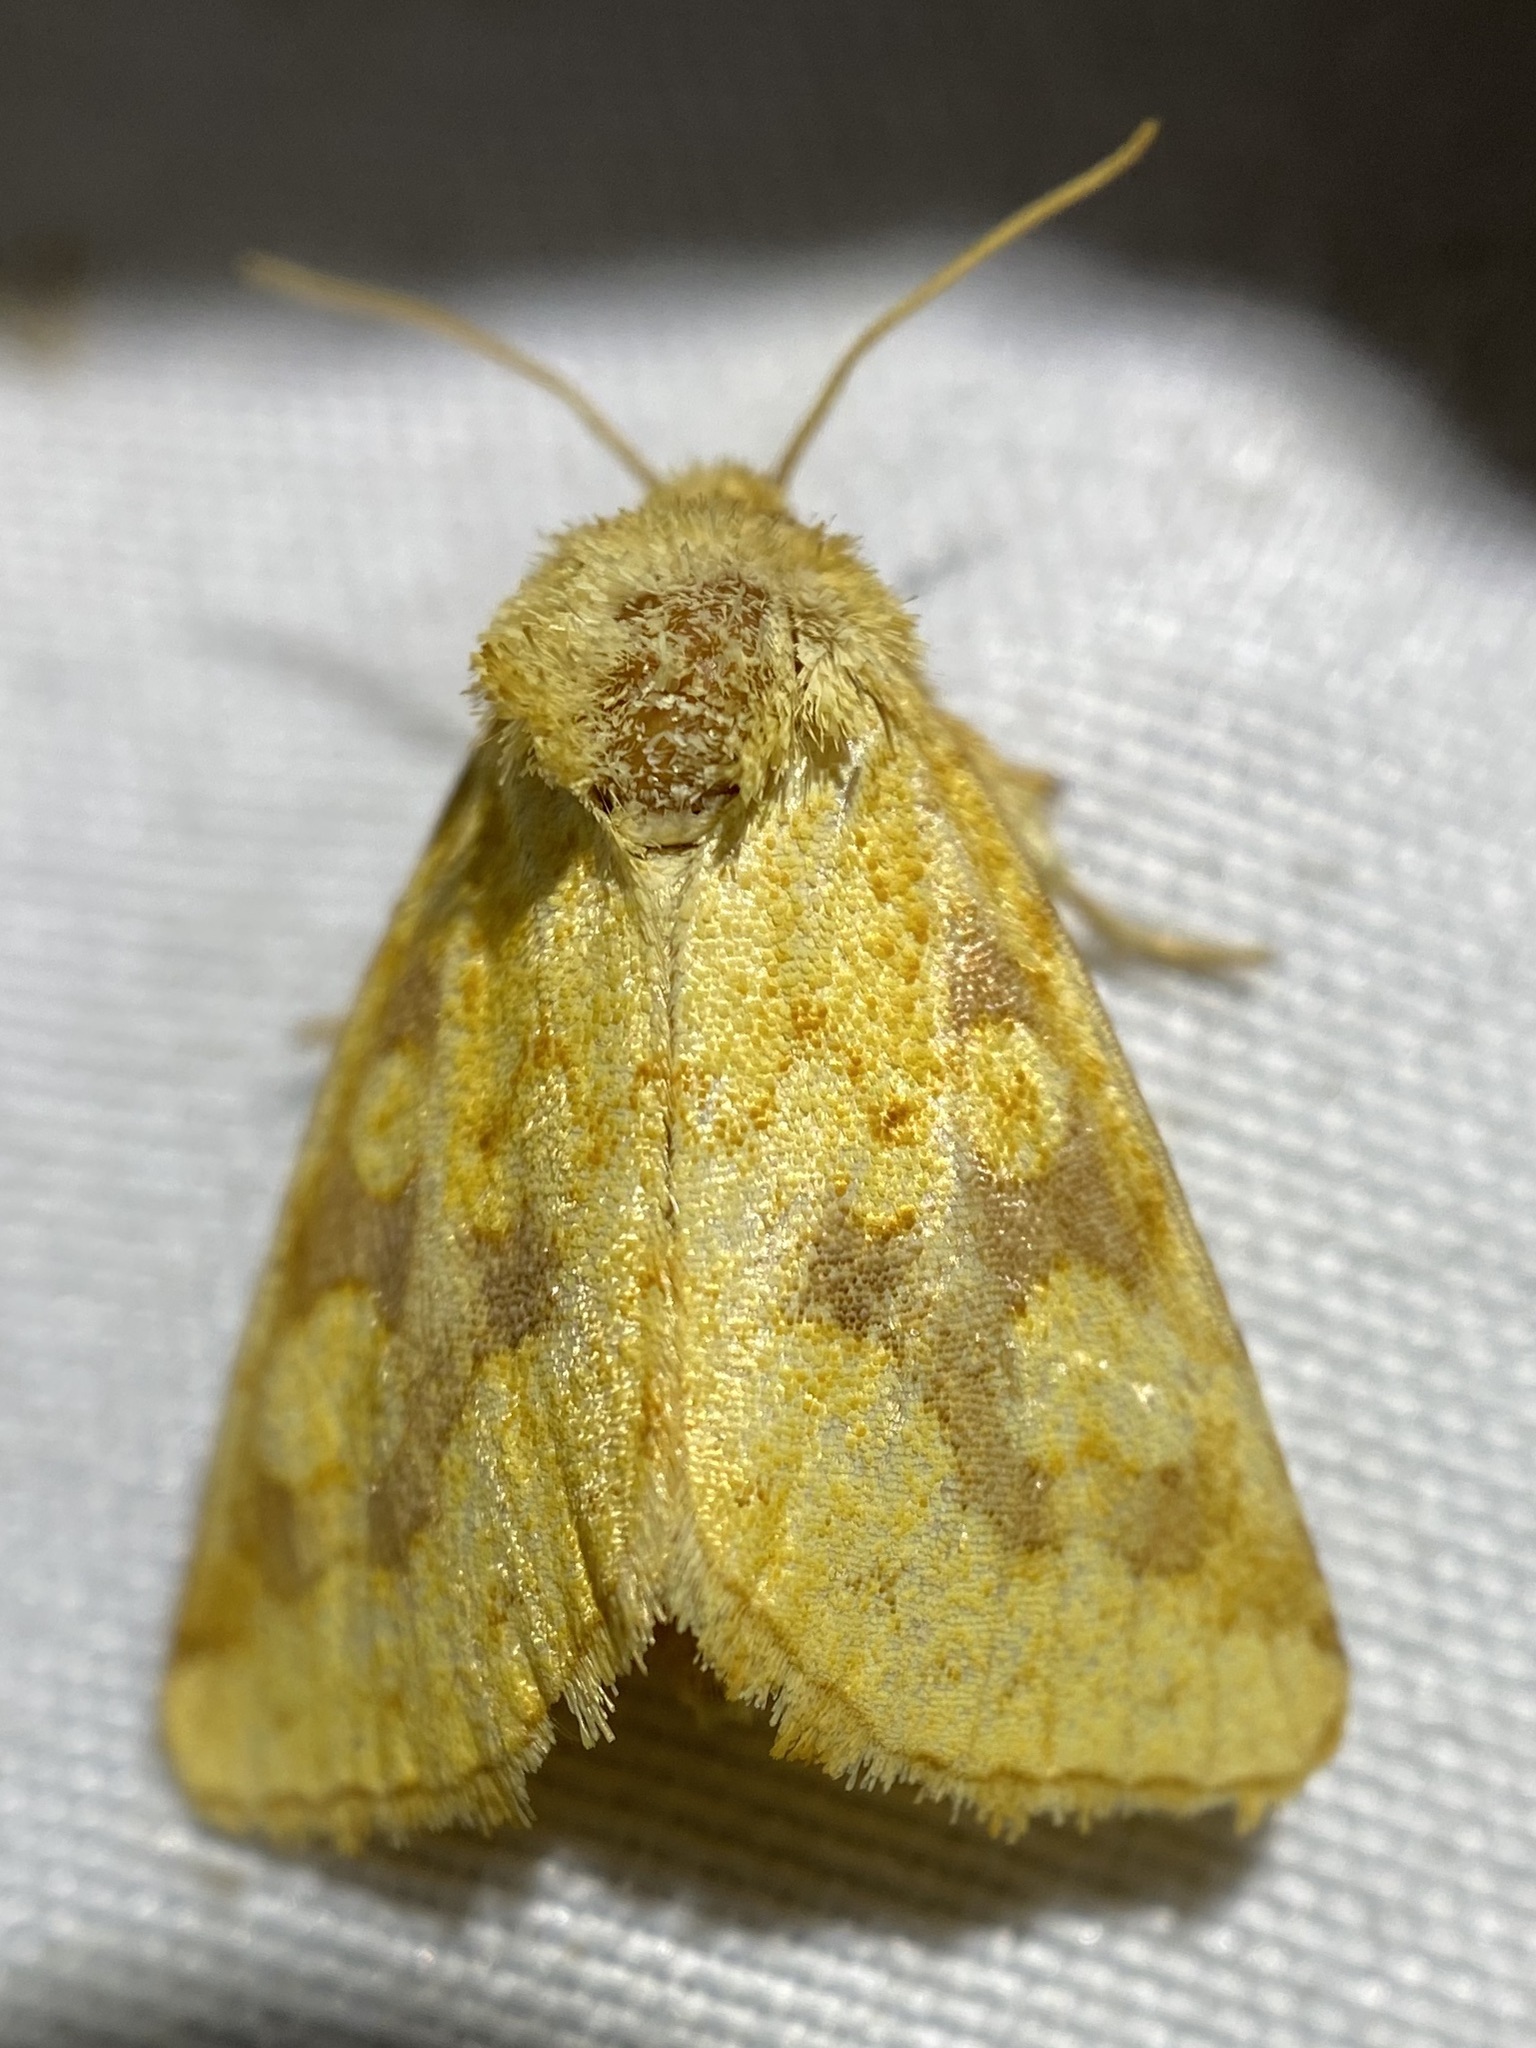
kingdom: Animalia
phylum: Arthropoda
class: Insecta
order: Lepidoptera
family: Noctuidae
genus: Nocloa
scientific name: Nocloa cordova
